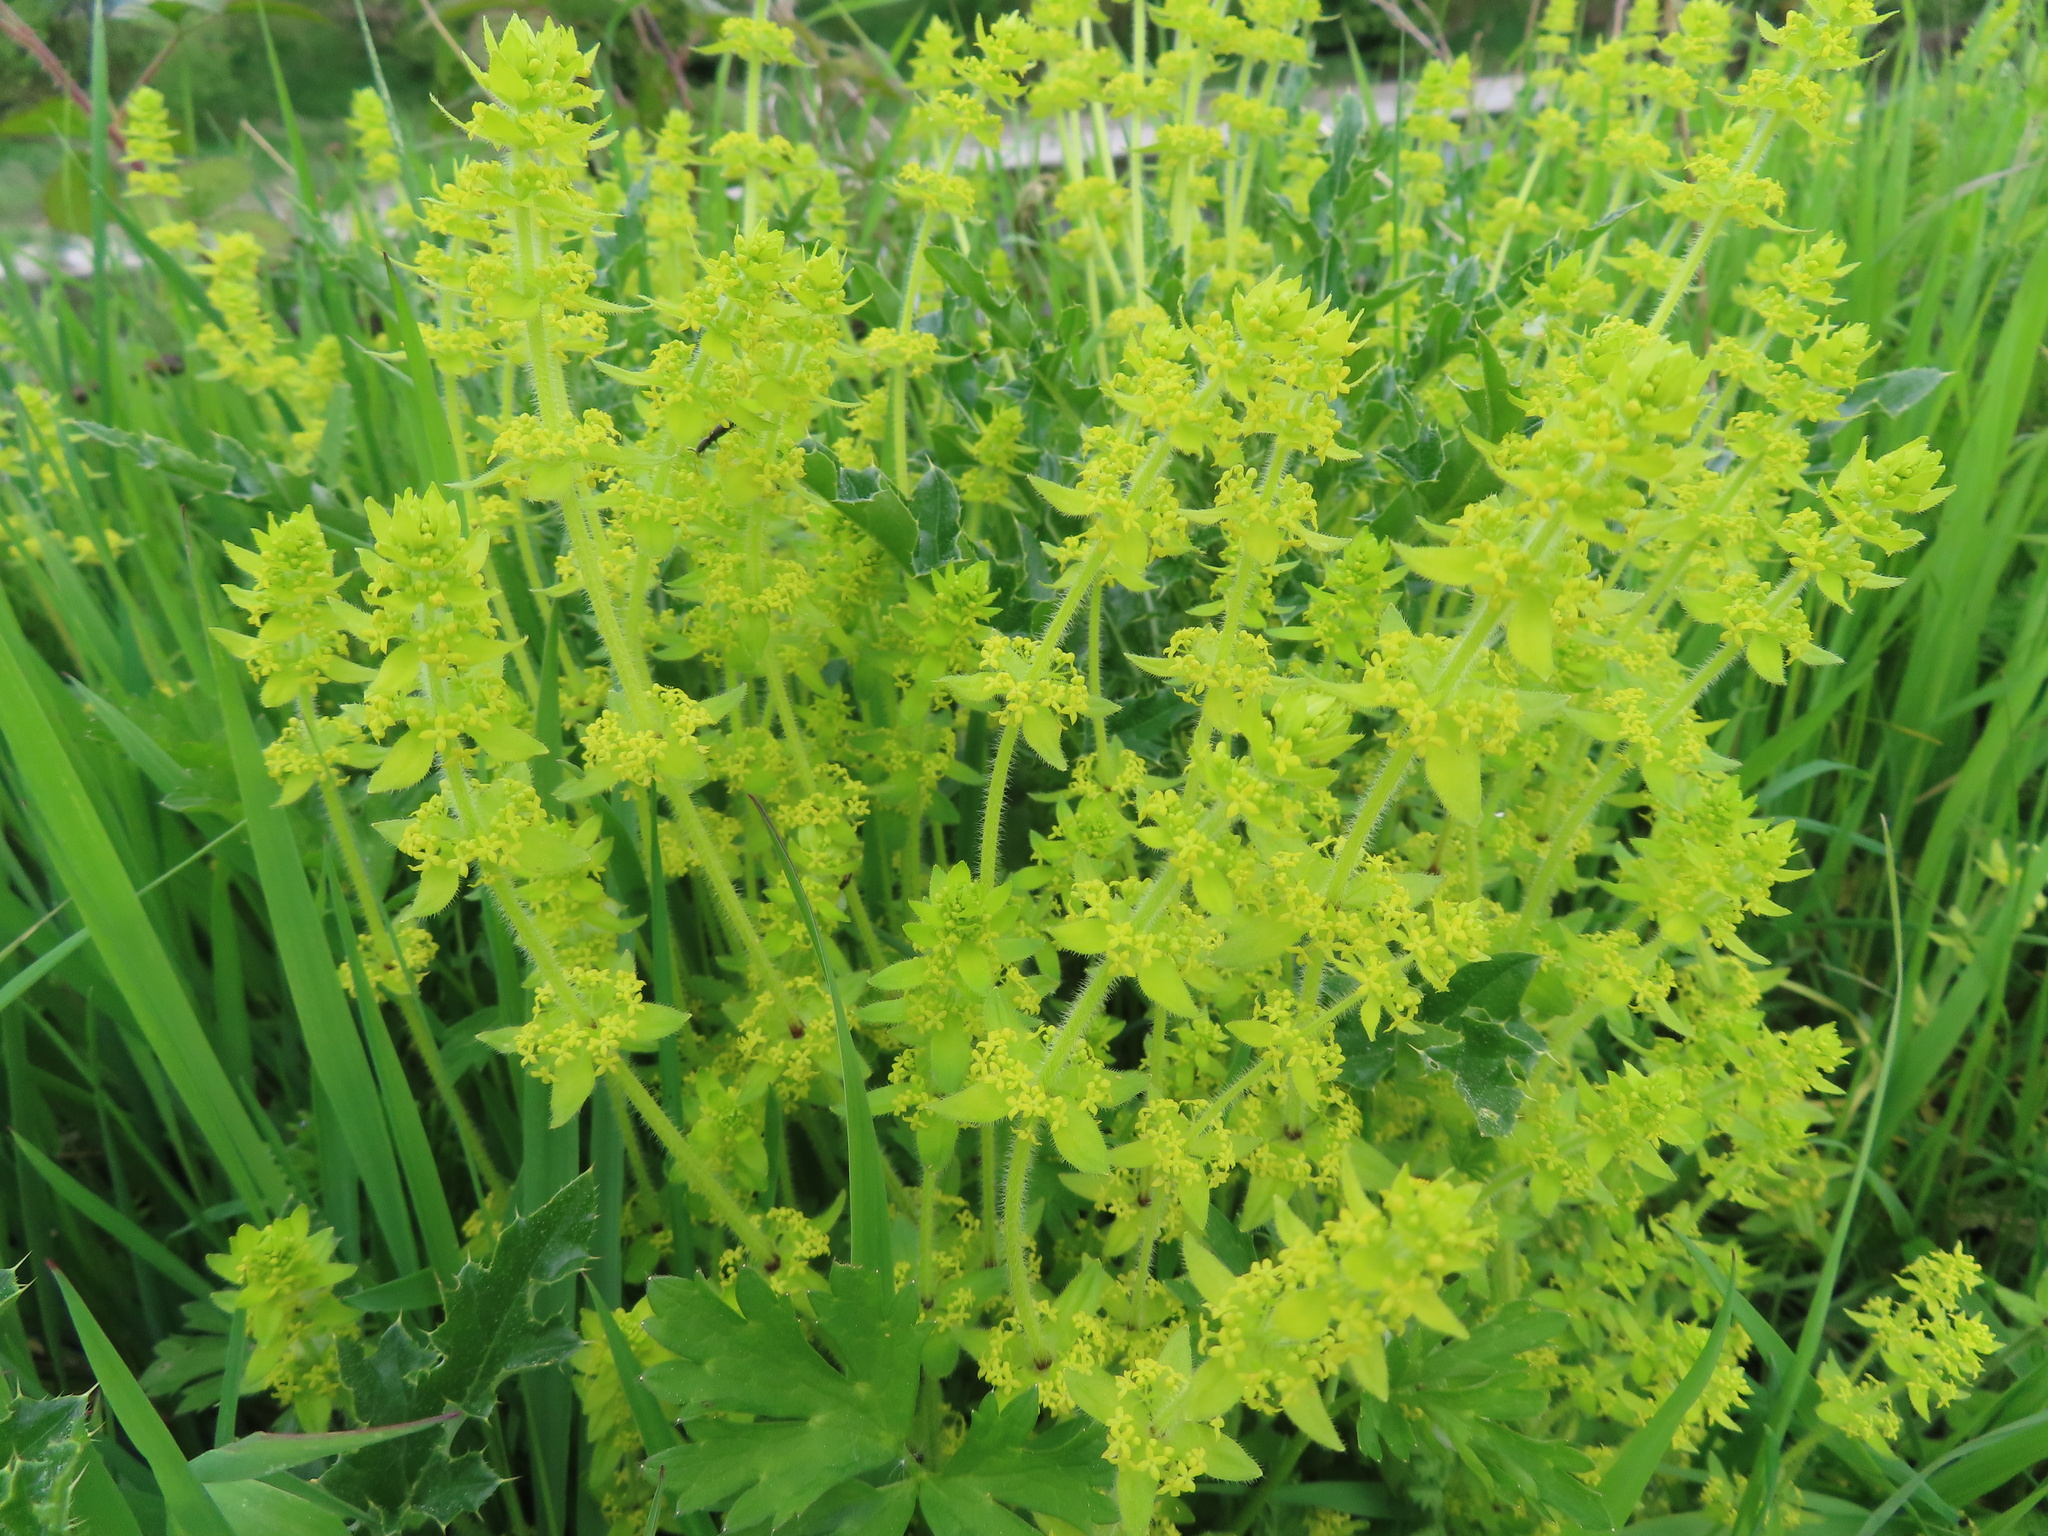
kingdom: Plantae
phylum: Tracheophyta
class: Magnoliopsida
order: Gentianales
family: Rubiaceae
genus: Cruciata
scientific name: Cruciata laevipes
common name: Crosswort
